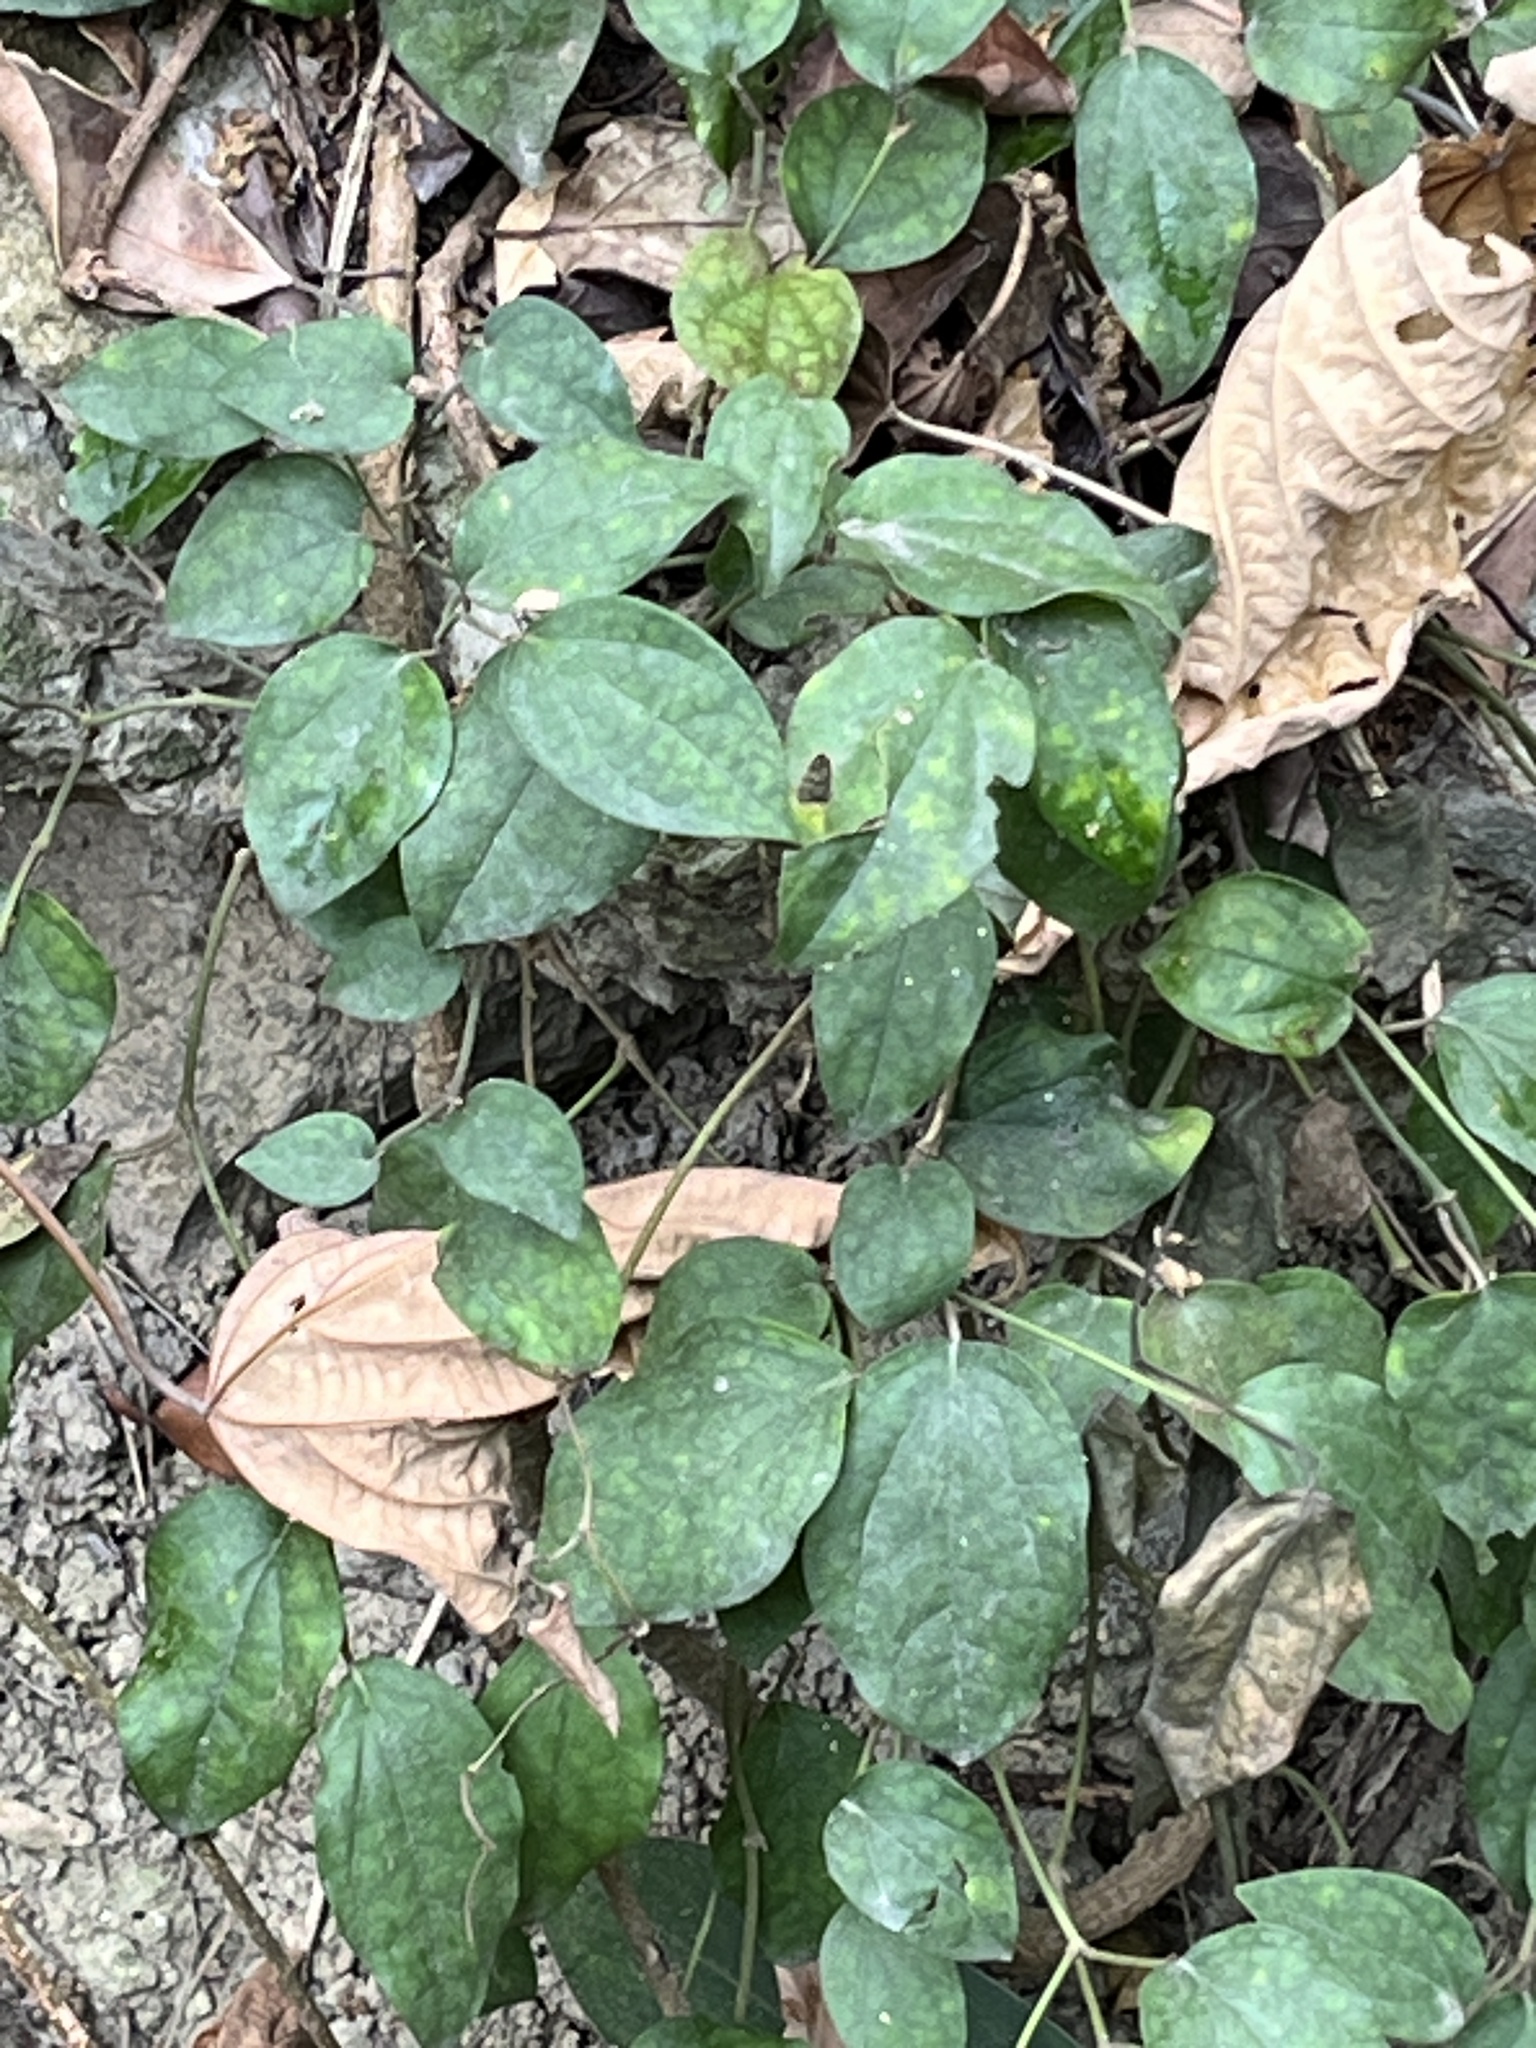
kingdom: Plantae
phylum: Tracheophyta
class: Magnoliopsida
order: Piperales
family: Piperaceae
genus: Piper
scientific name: Piper kadsura
